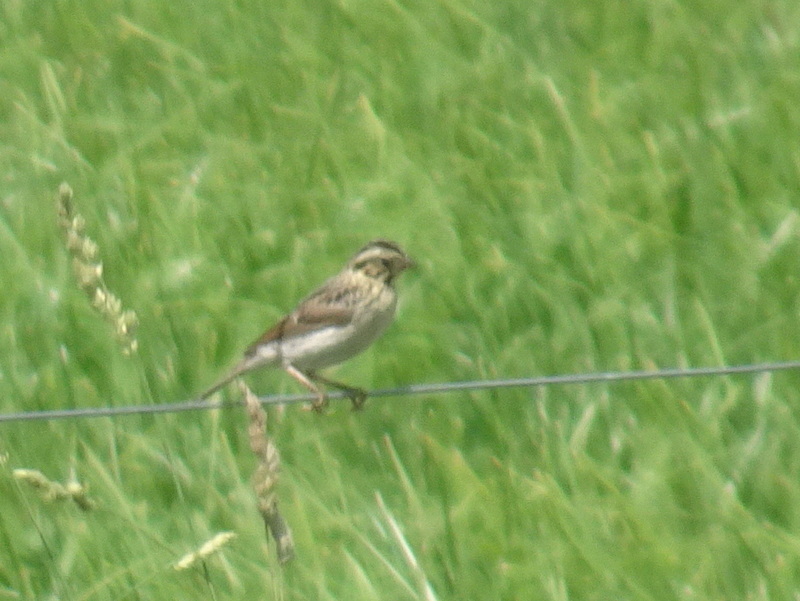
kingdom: Animalia
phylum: Chordata
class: Aves
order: Passeriformes
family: Passerellidae
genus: Passerculus
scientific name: Passerculus sandwichensis
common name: Savannah sparrow
